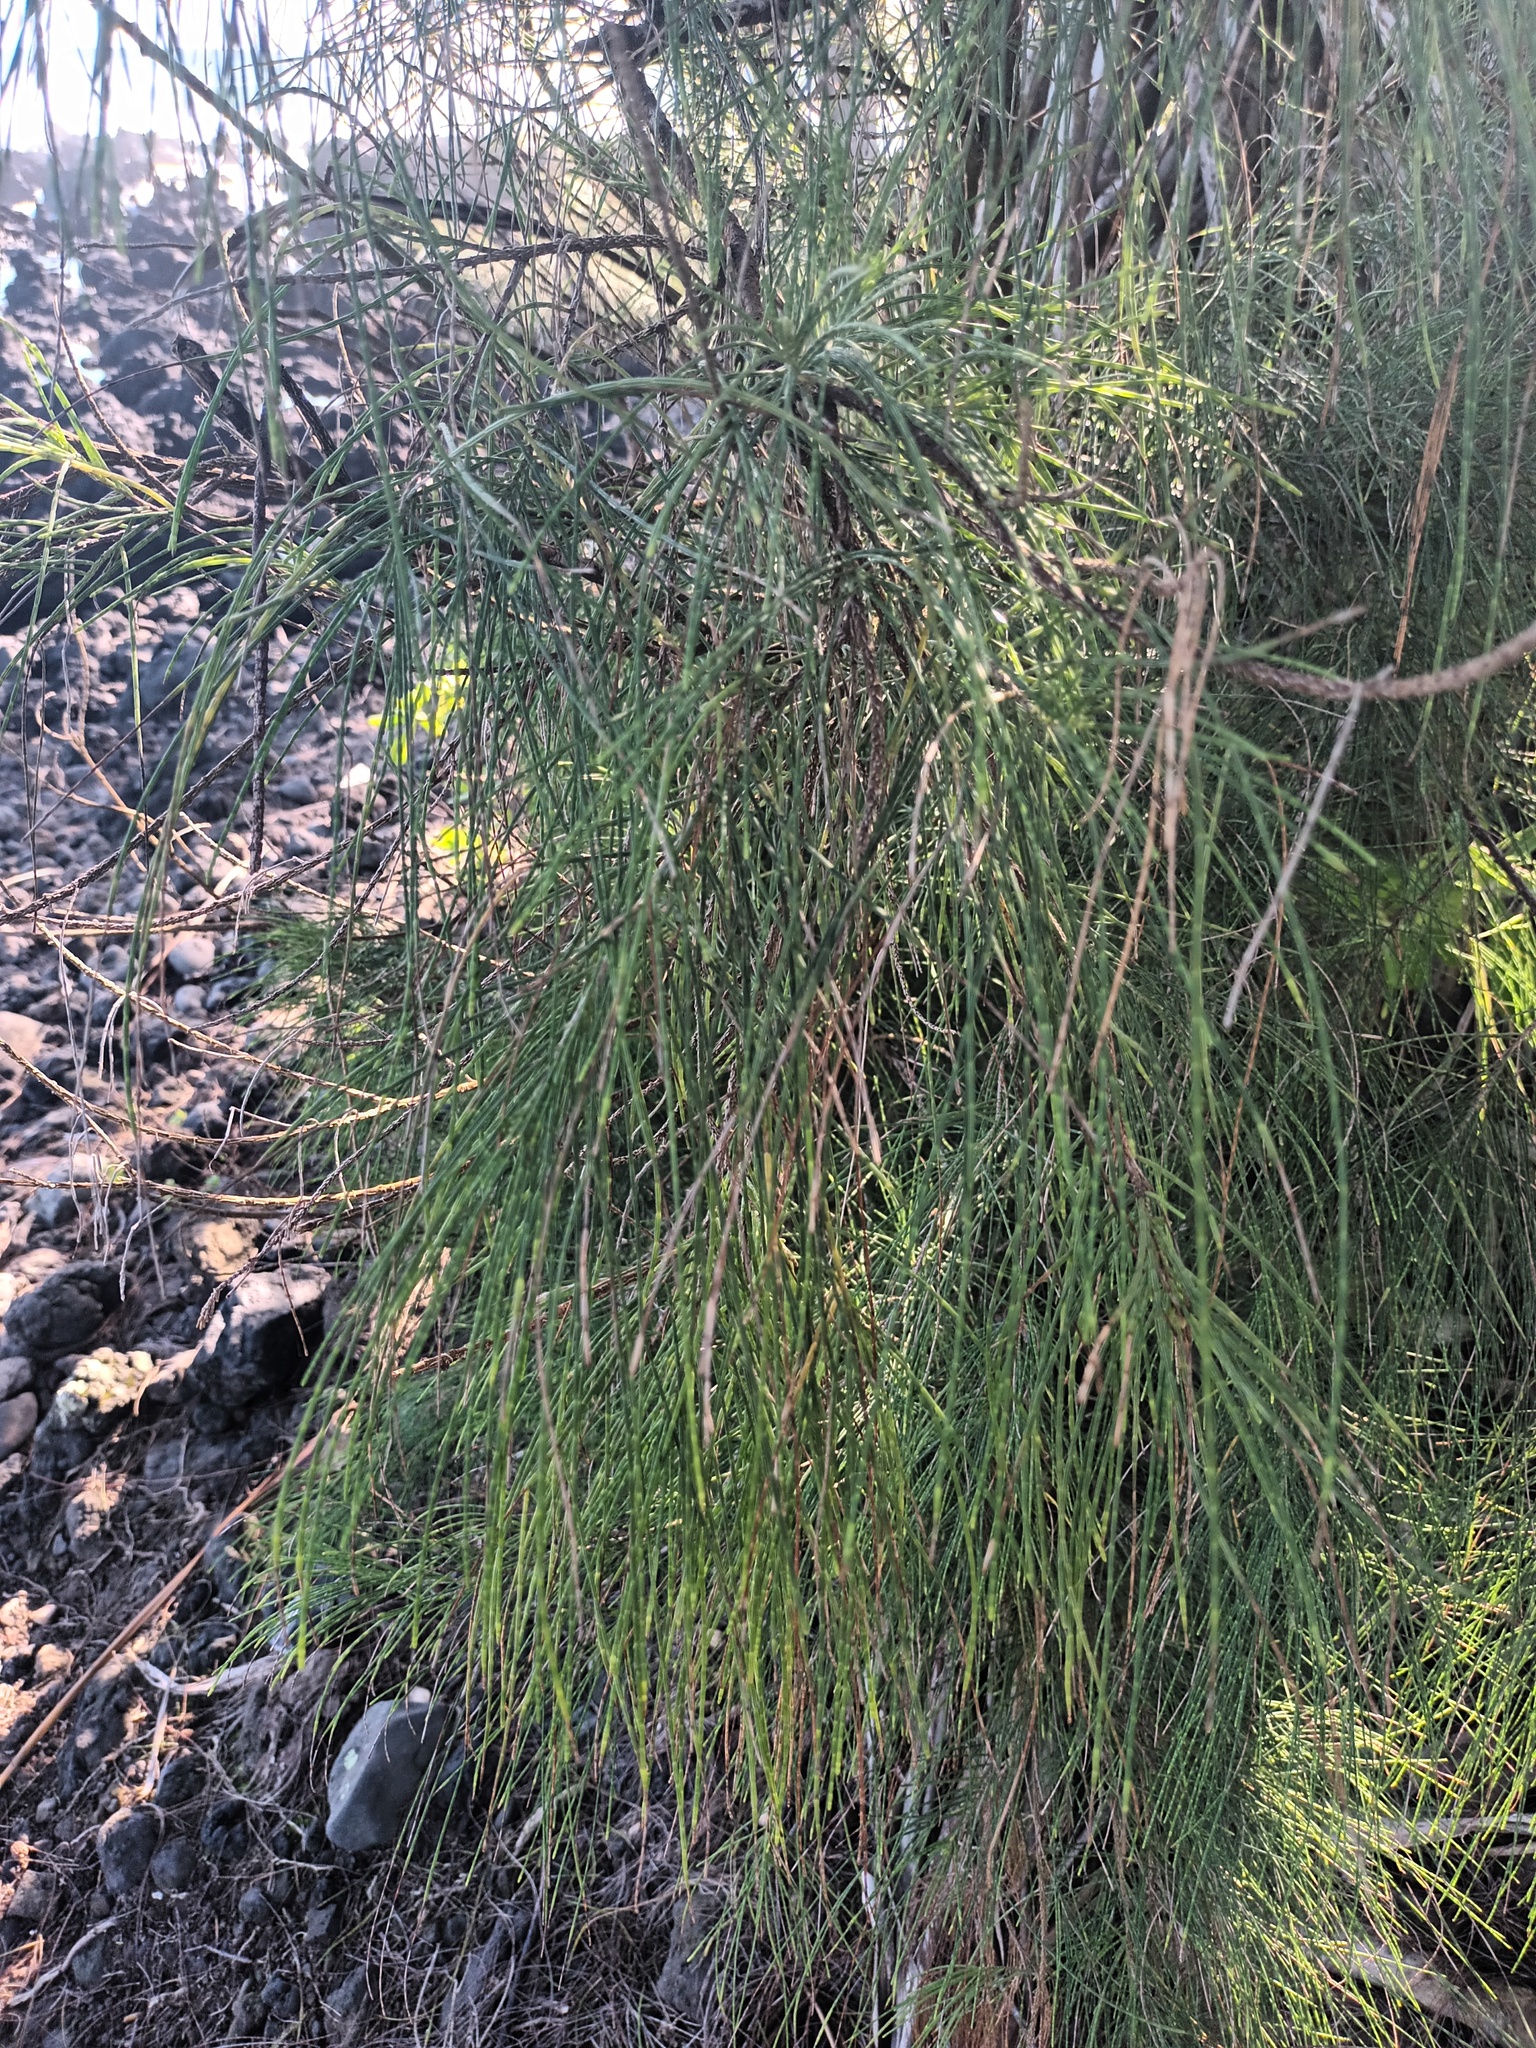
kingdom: Plantae
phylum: Tracheophyta
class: Magnoliopsida
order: Fagales
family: Casuarinaceae
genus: Casuarina
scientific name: Casuarina equisetifolia
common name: Beach sheoak
